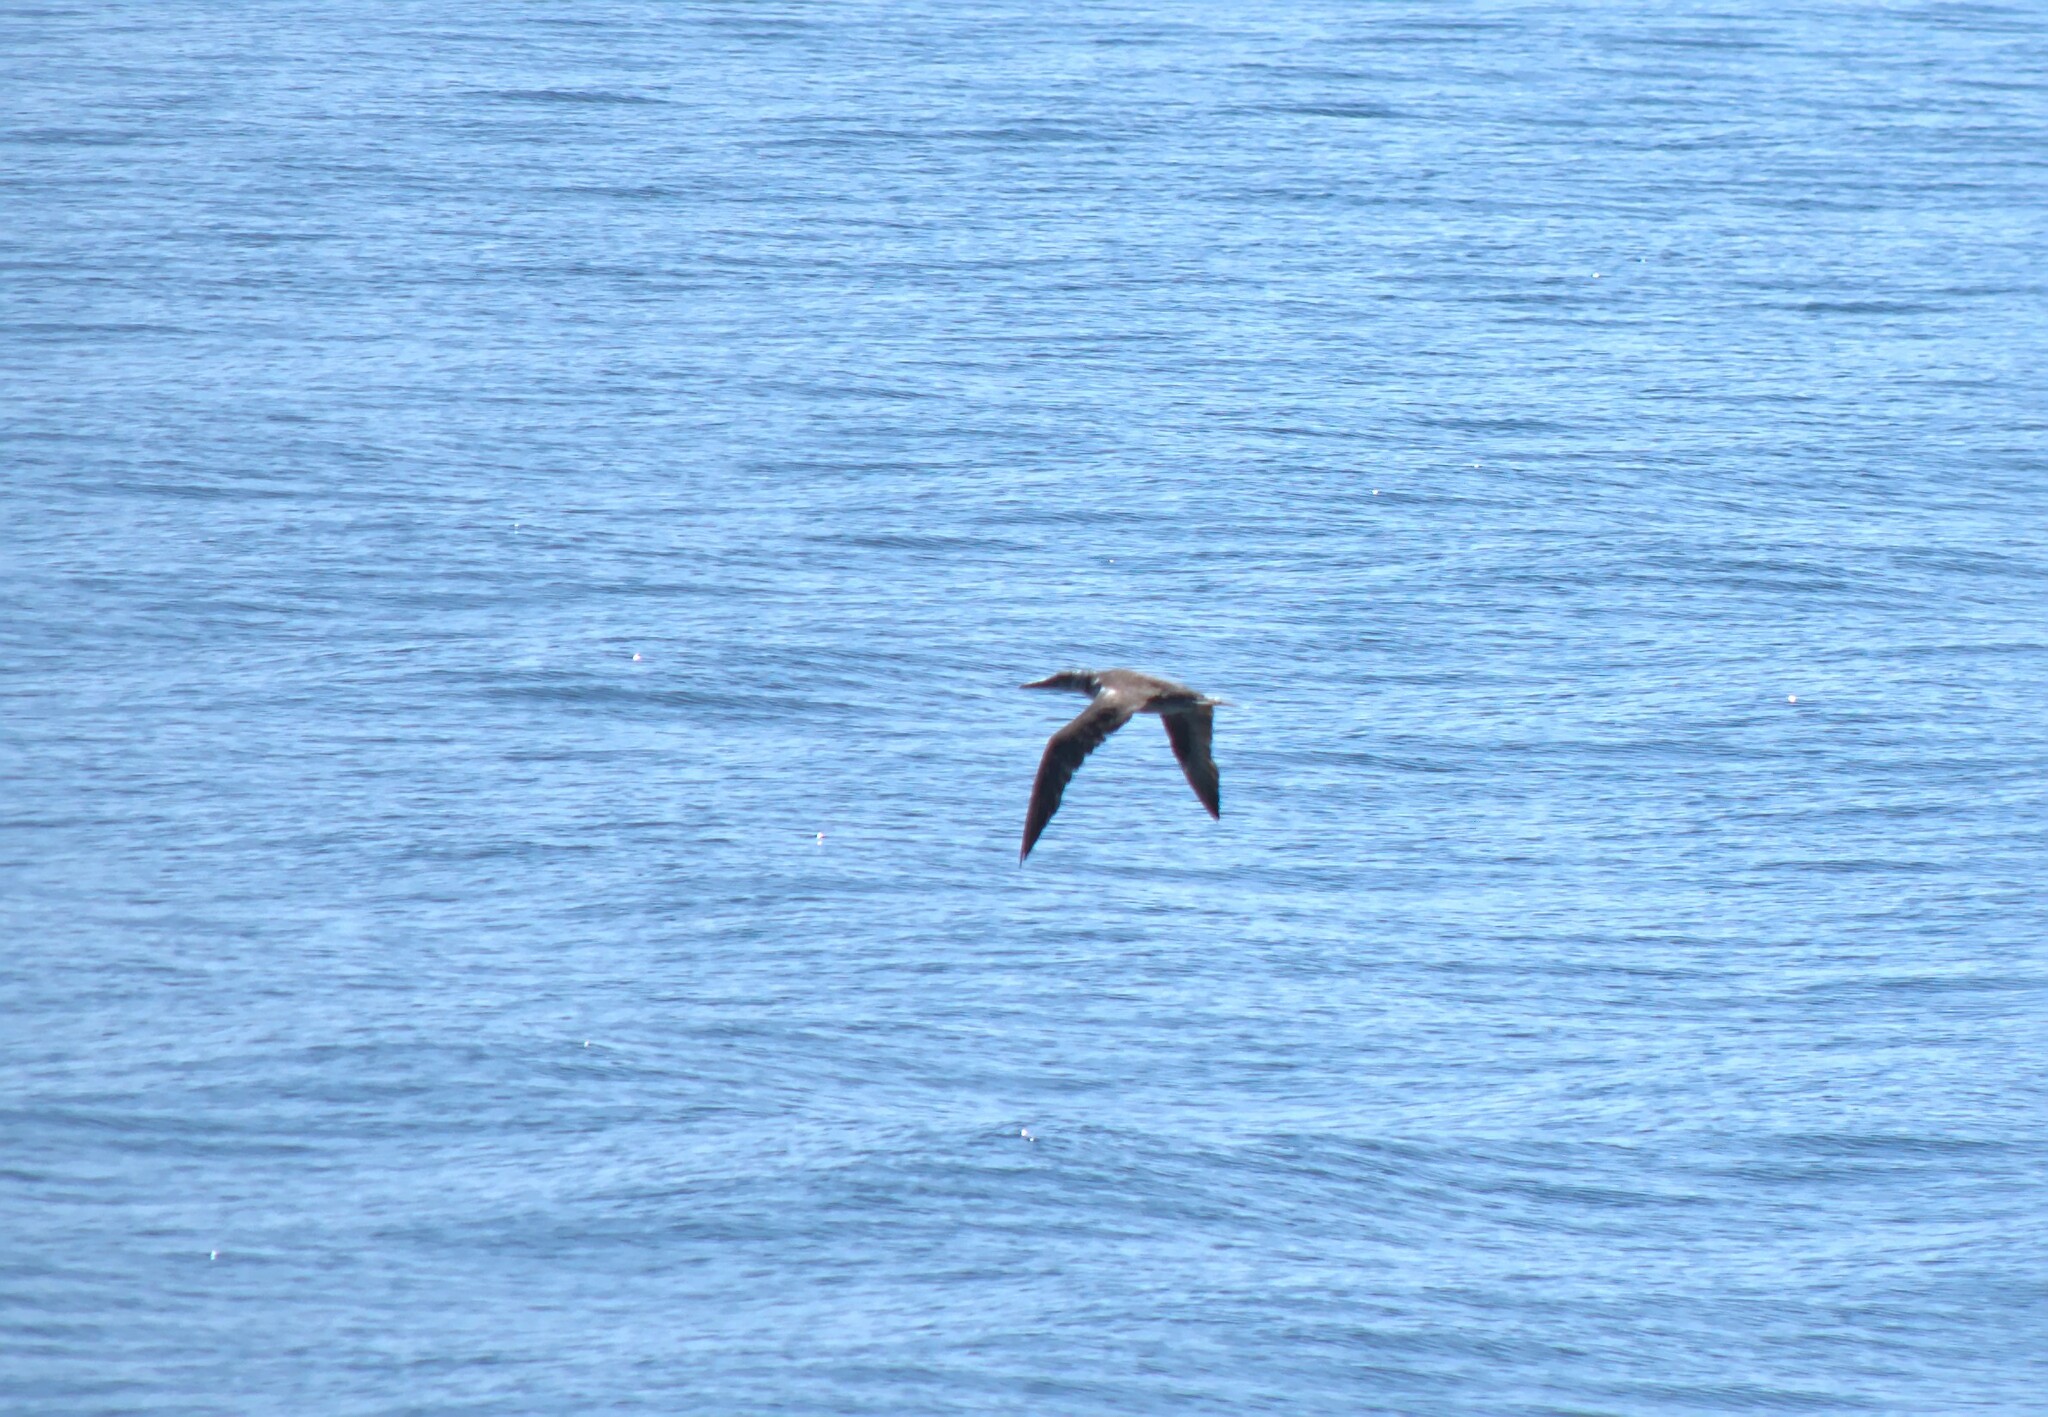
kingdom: Animalia
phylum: Chordata
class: Aves
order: Suliformes
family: Sulidae
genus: Morus
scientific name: Morus bassanus
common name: Northern gannet
